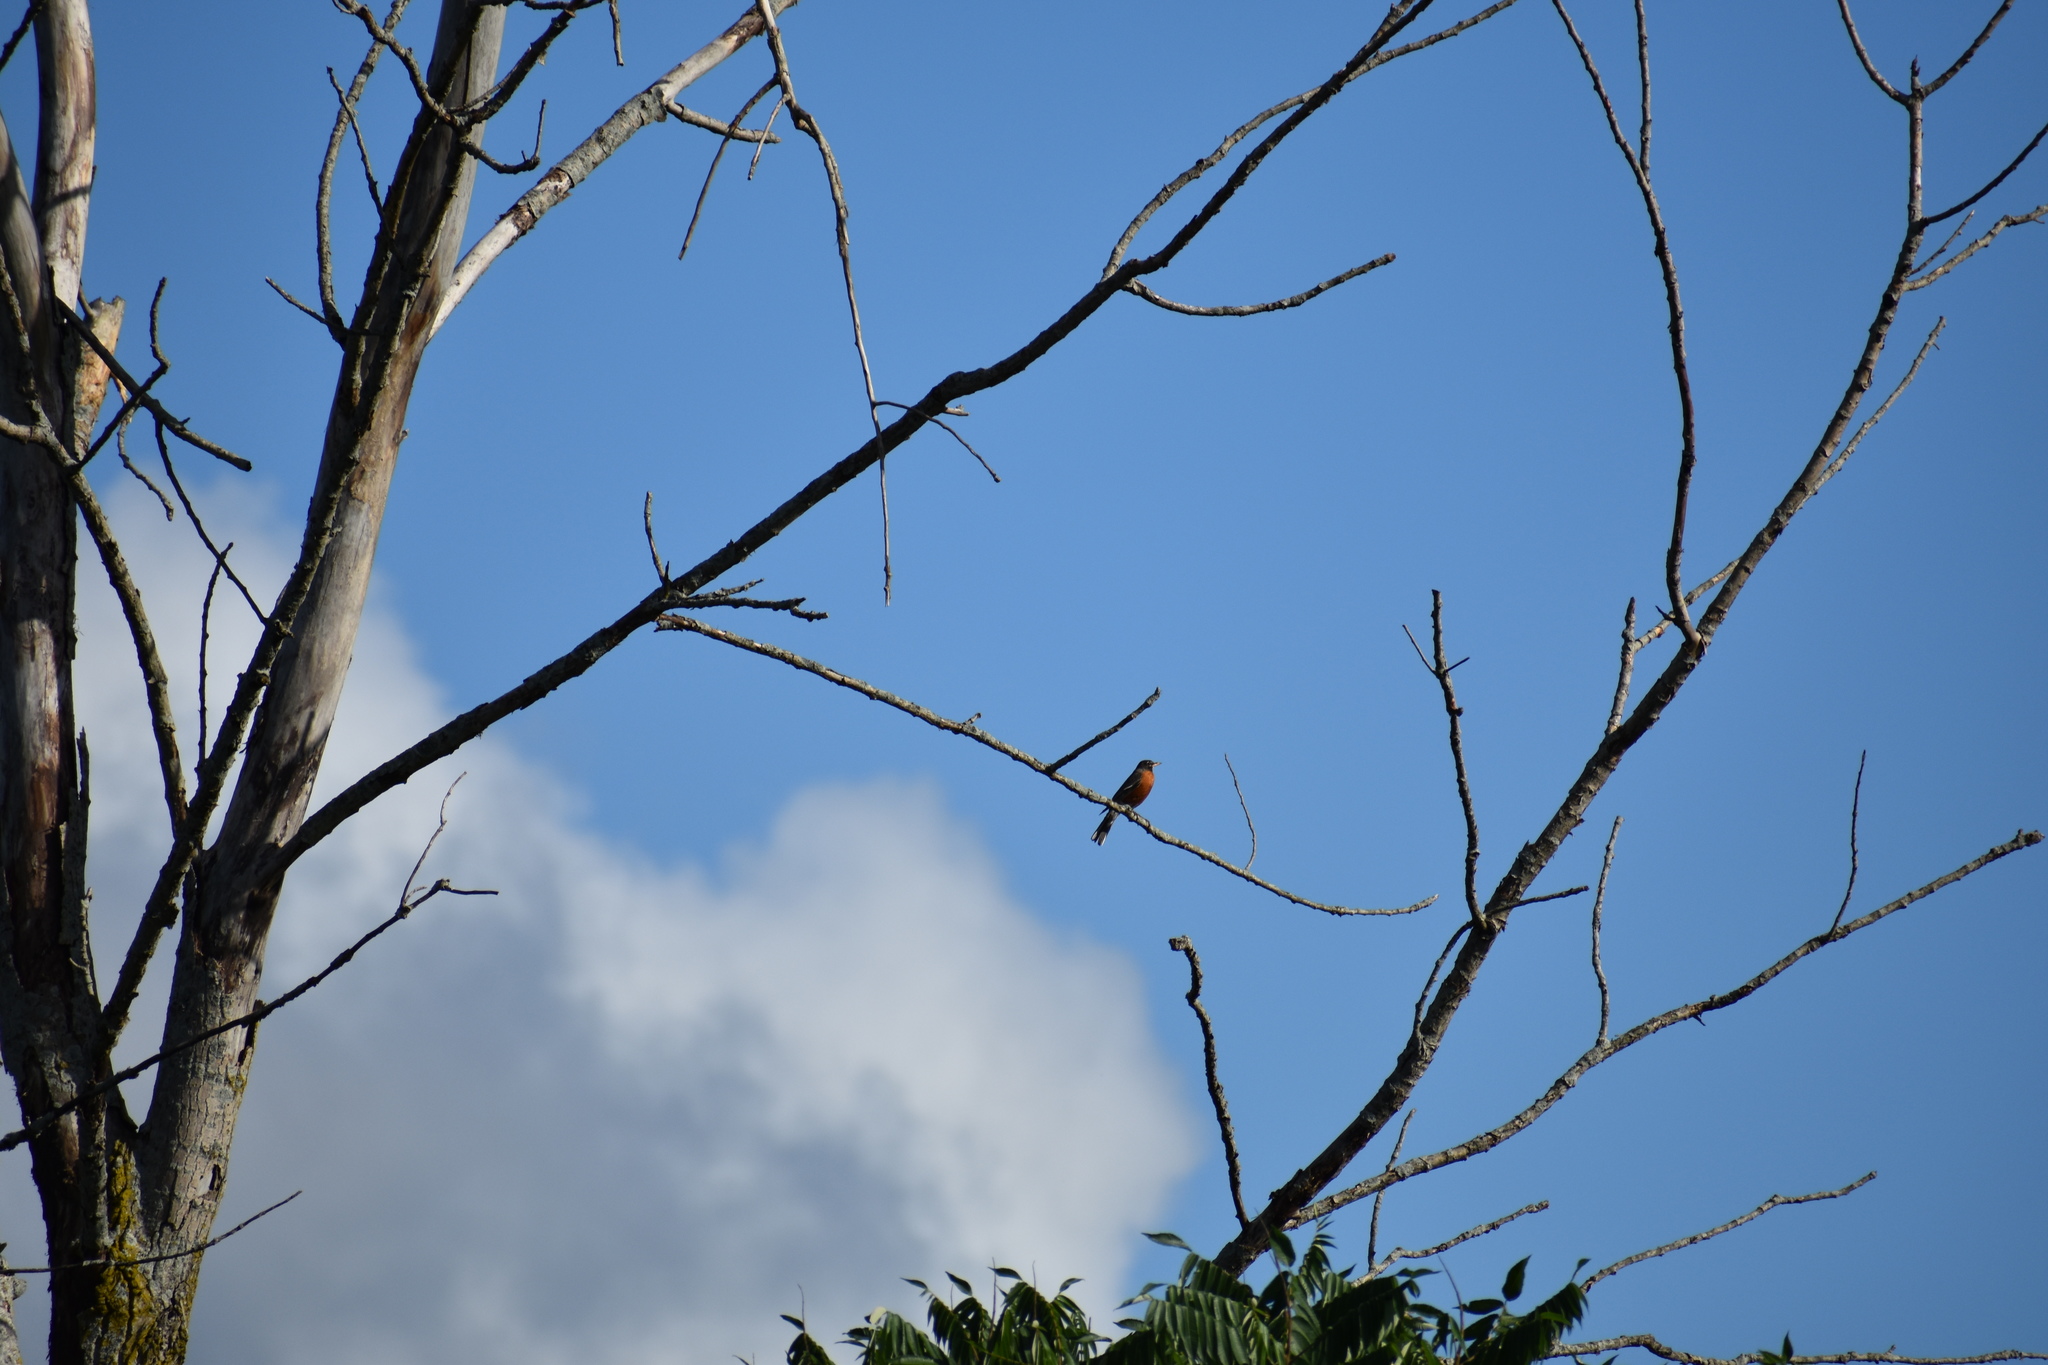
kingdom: Animalia
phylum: Chordata
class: Aves
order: Passeriformes
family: Turdidae
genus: Turdus
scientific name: Turdus migratorius
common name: American robin
